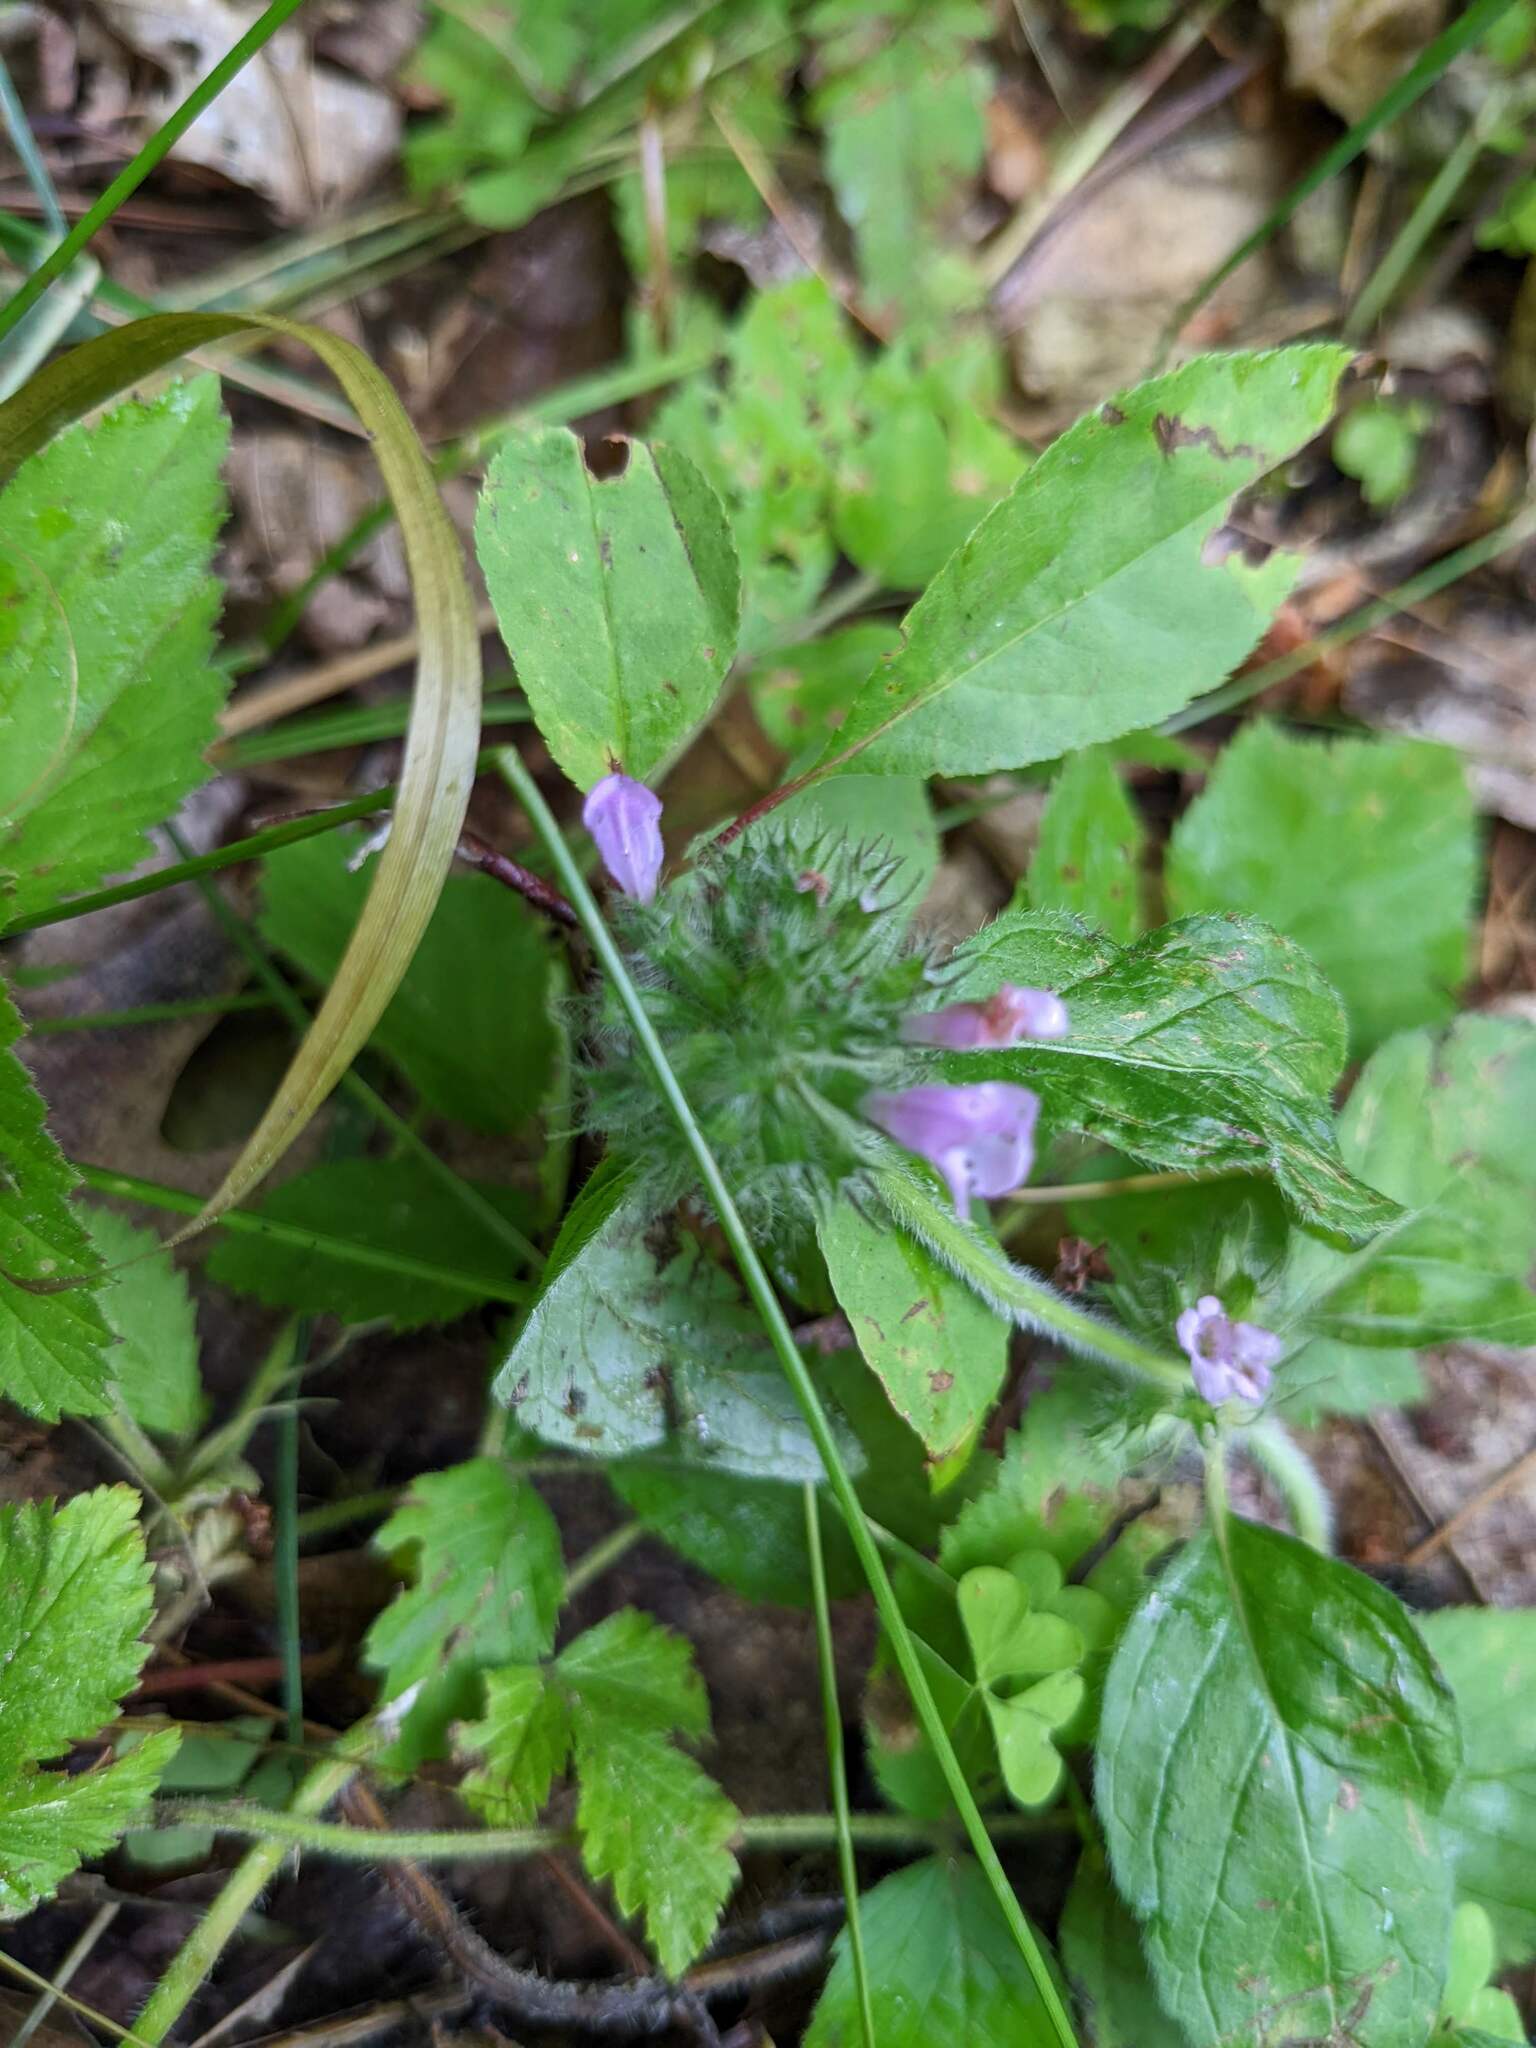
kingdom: Plantae
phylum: Tracheophyta
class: Magnoliopsida
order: Lamiales
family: Lamiaceae
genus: Prunella
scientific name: Prunella vulgaris
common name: Heal-all
